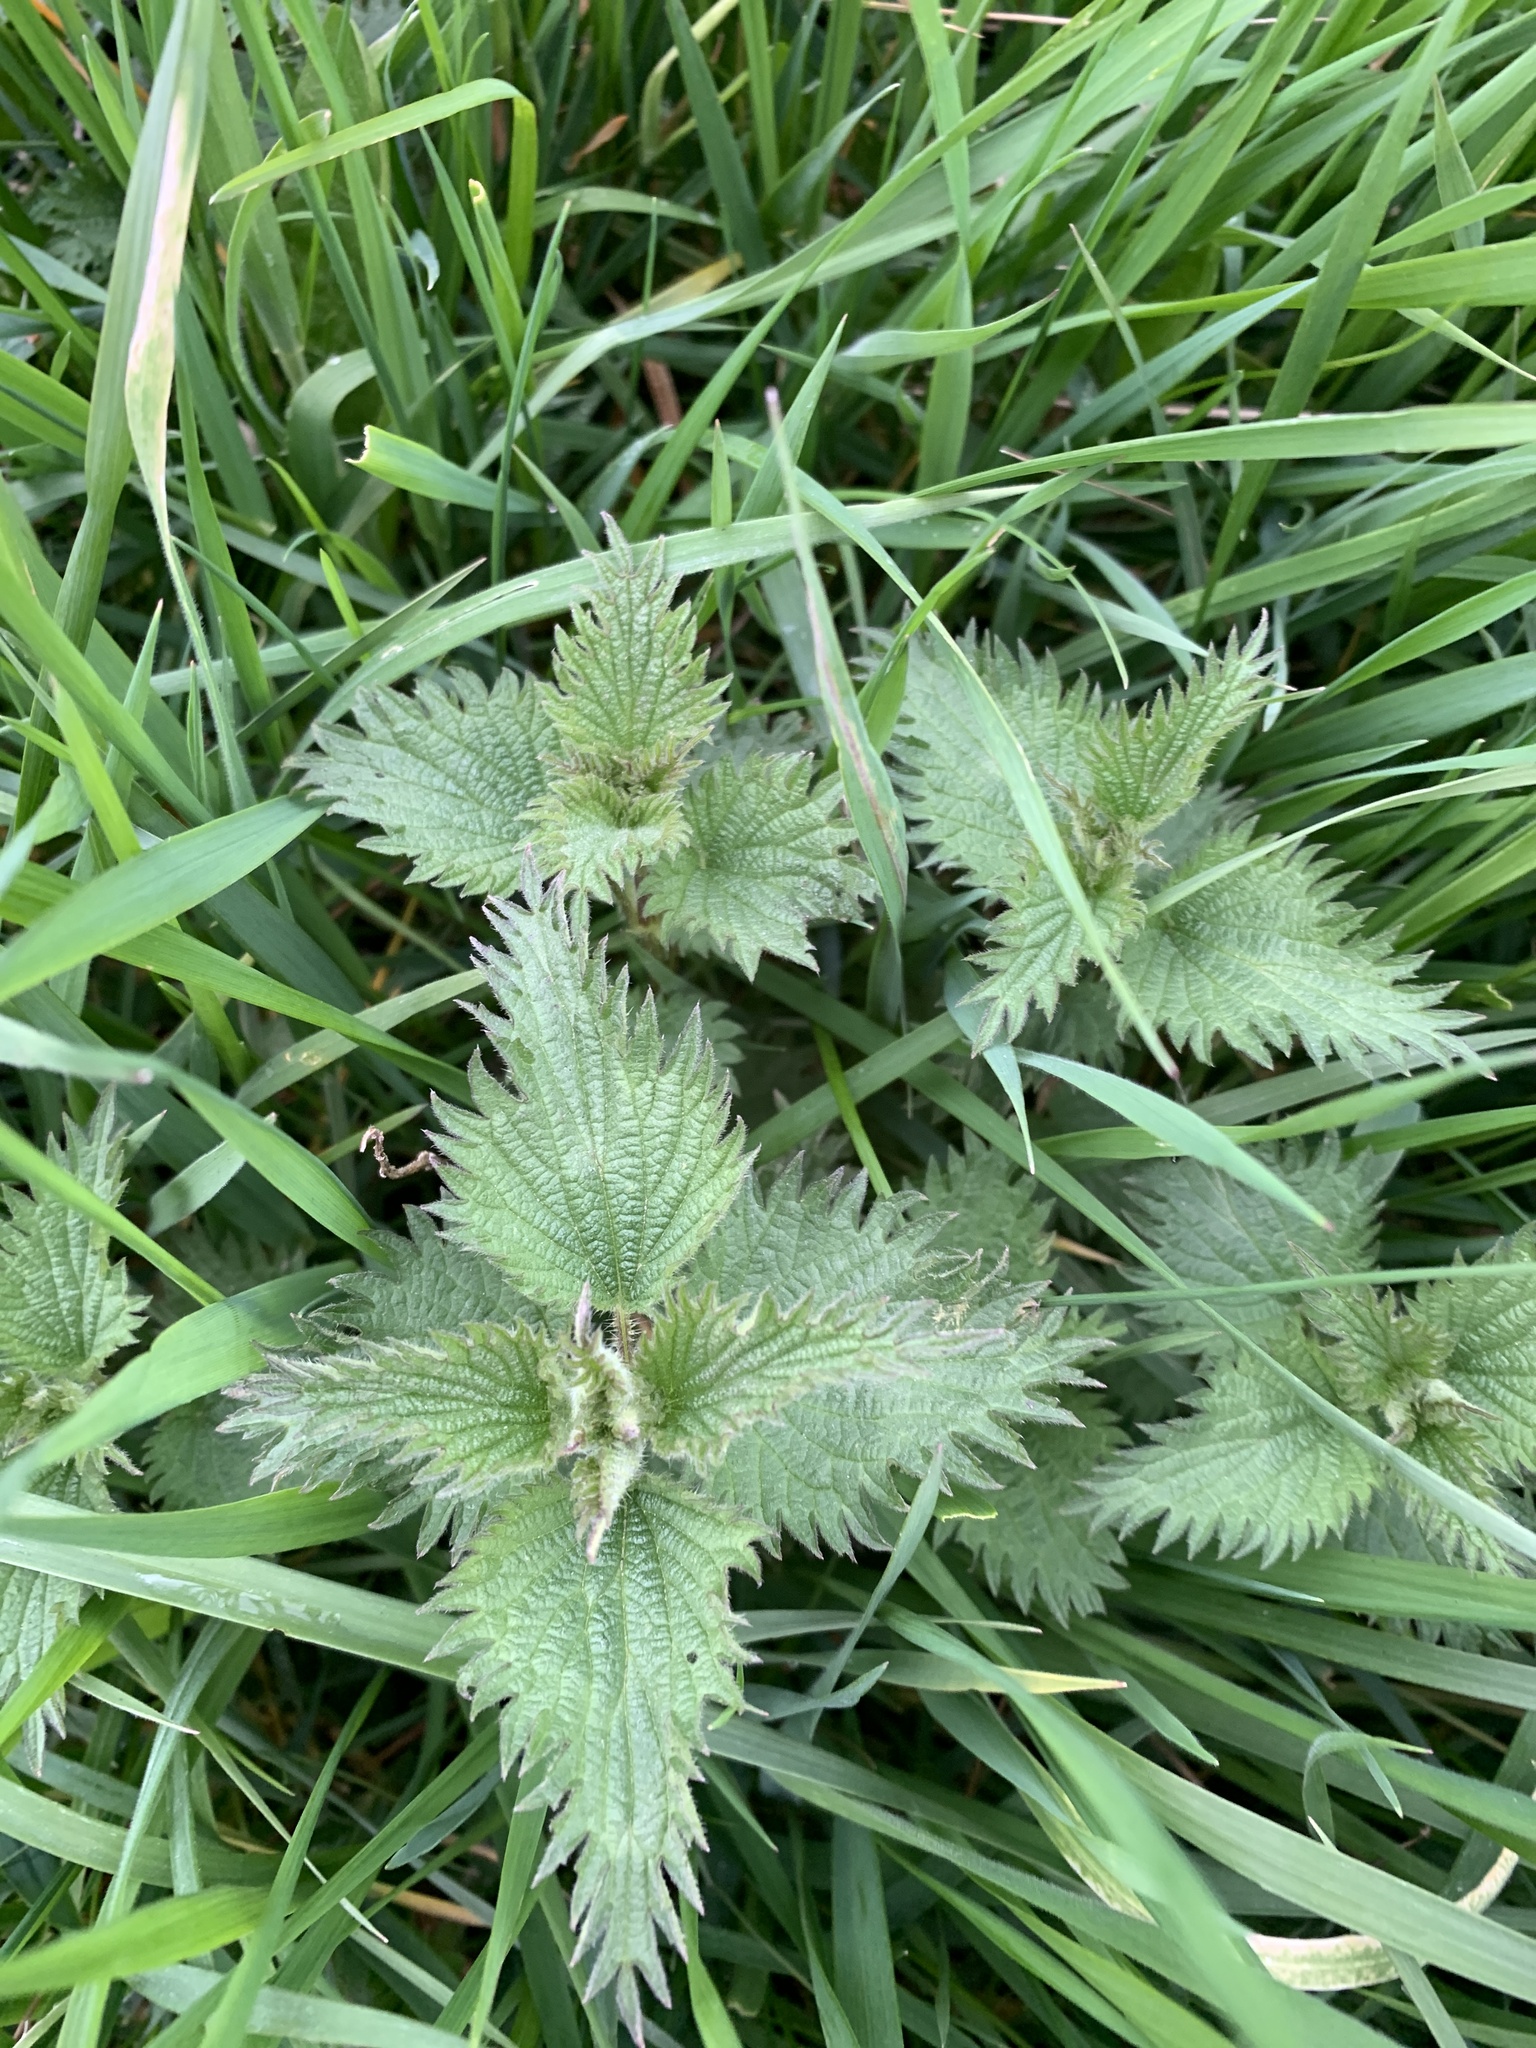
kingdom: Plantae
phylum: Tracheophyta
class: Magnoliopsida
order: Rosales
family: Urticaceae
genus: Urtica
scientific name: Urtica dioica
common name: Common nettle
